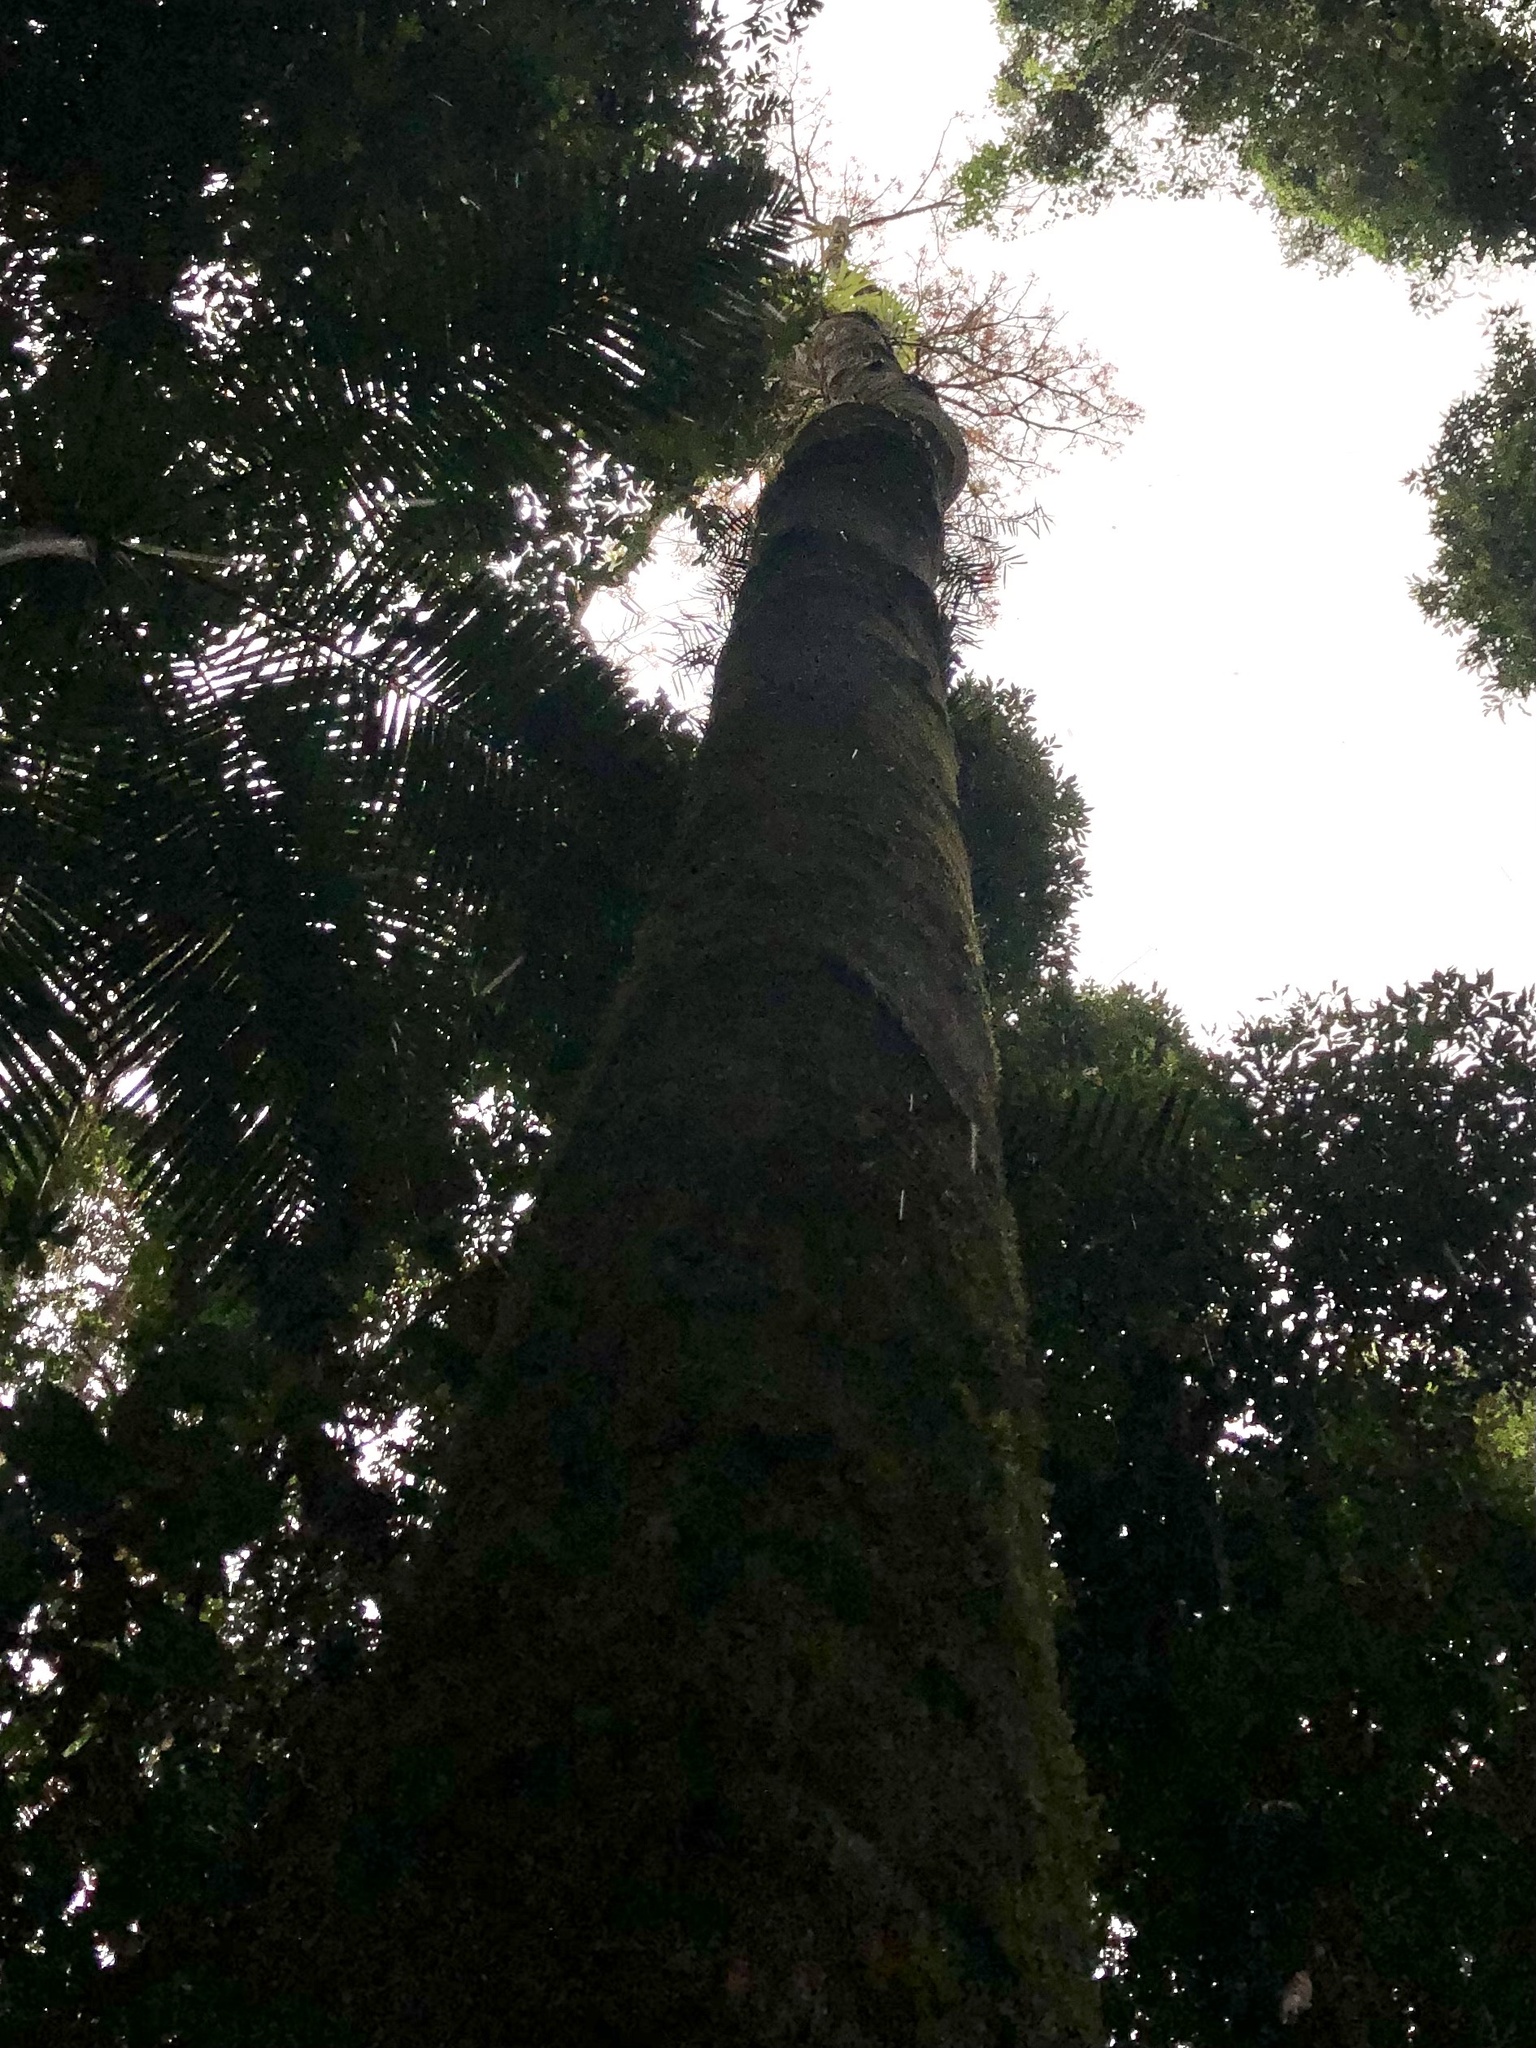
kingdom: Plantae
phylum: Tracheophyta
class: Magnoliopsida
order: Malvales
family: Malvaceae
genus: Brachychiton
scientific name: Brachychiton acerifolius
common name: Illawarra flame tree
